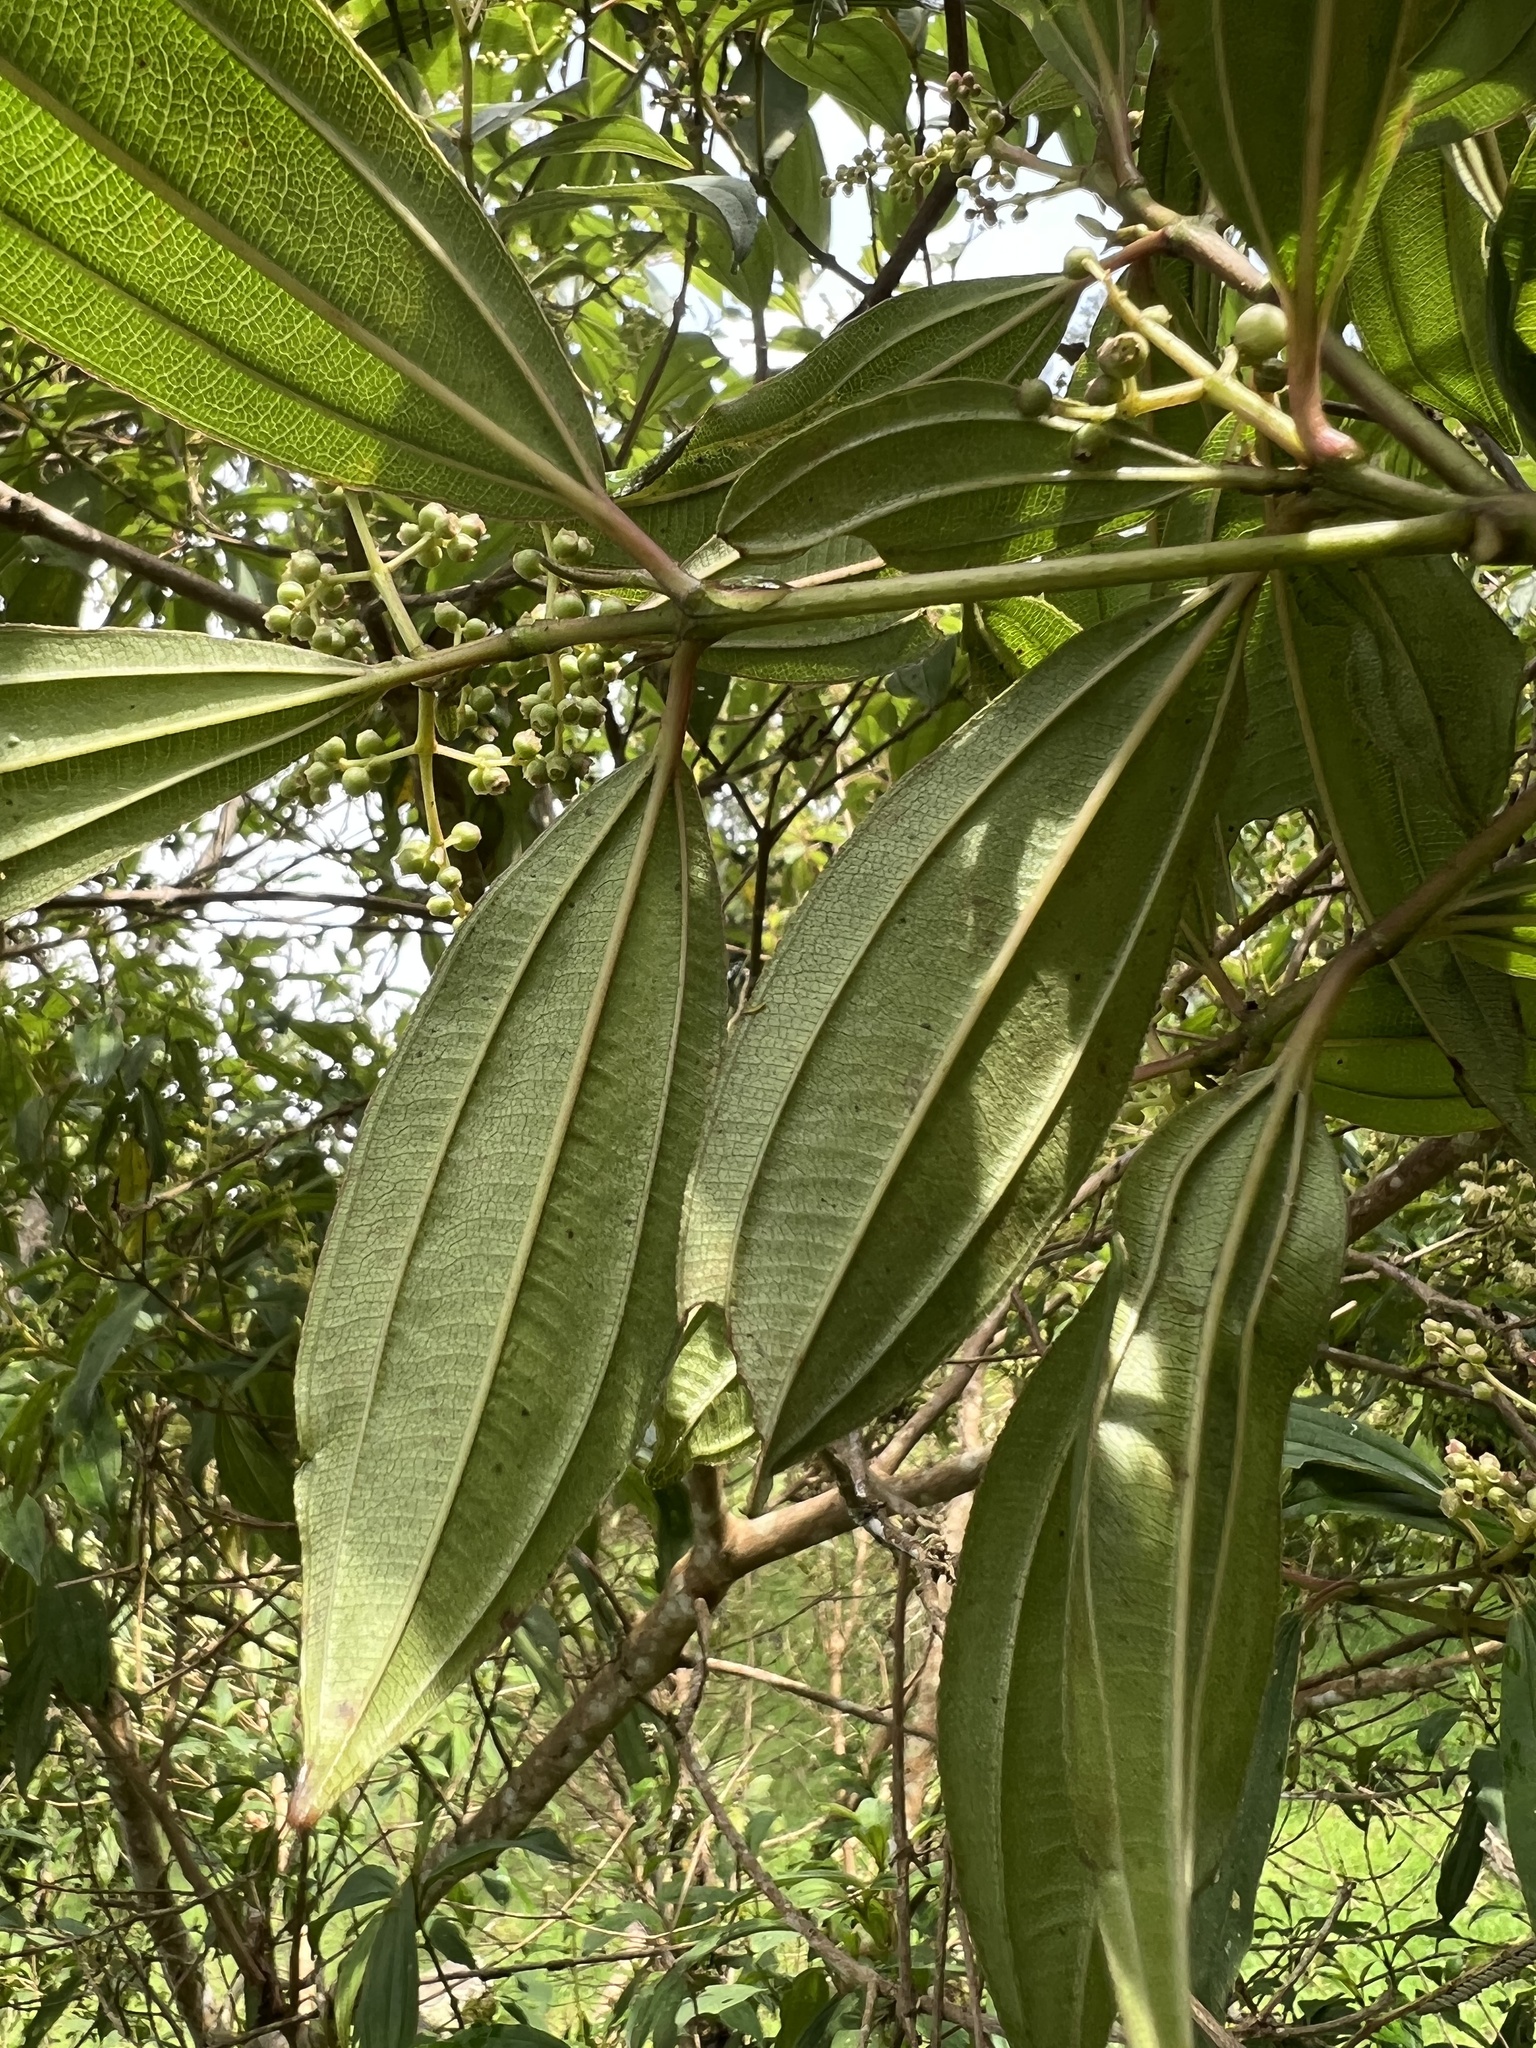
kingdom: Plantae
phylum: Tracheophyta
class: Magnoliopsida
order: Myrtales
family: Melastomataceae
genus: Miconia
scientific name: Miconia theizans
